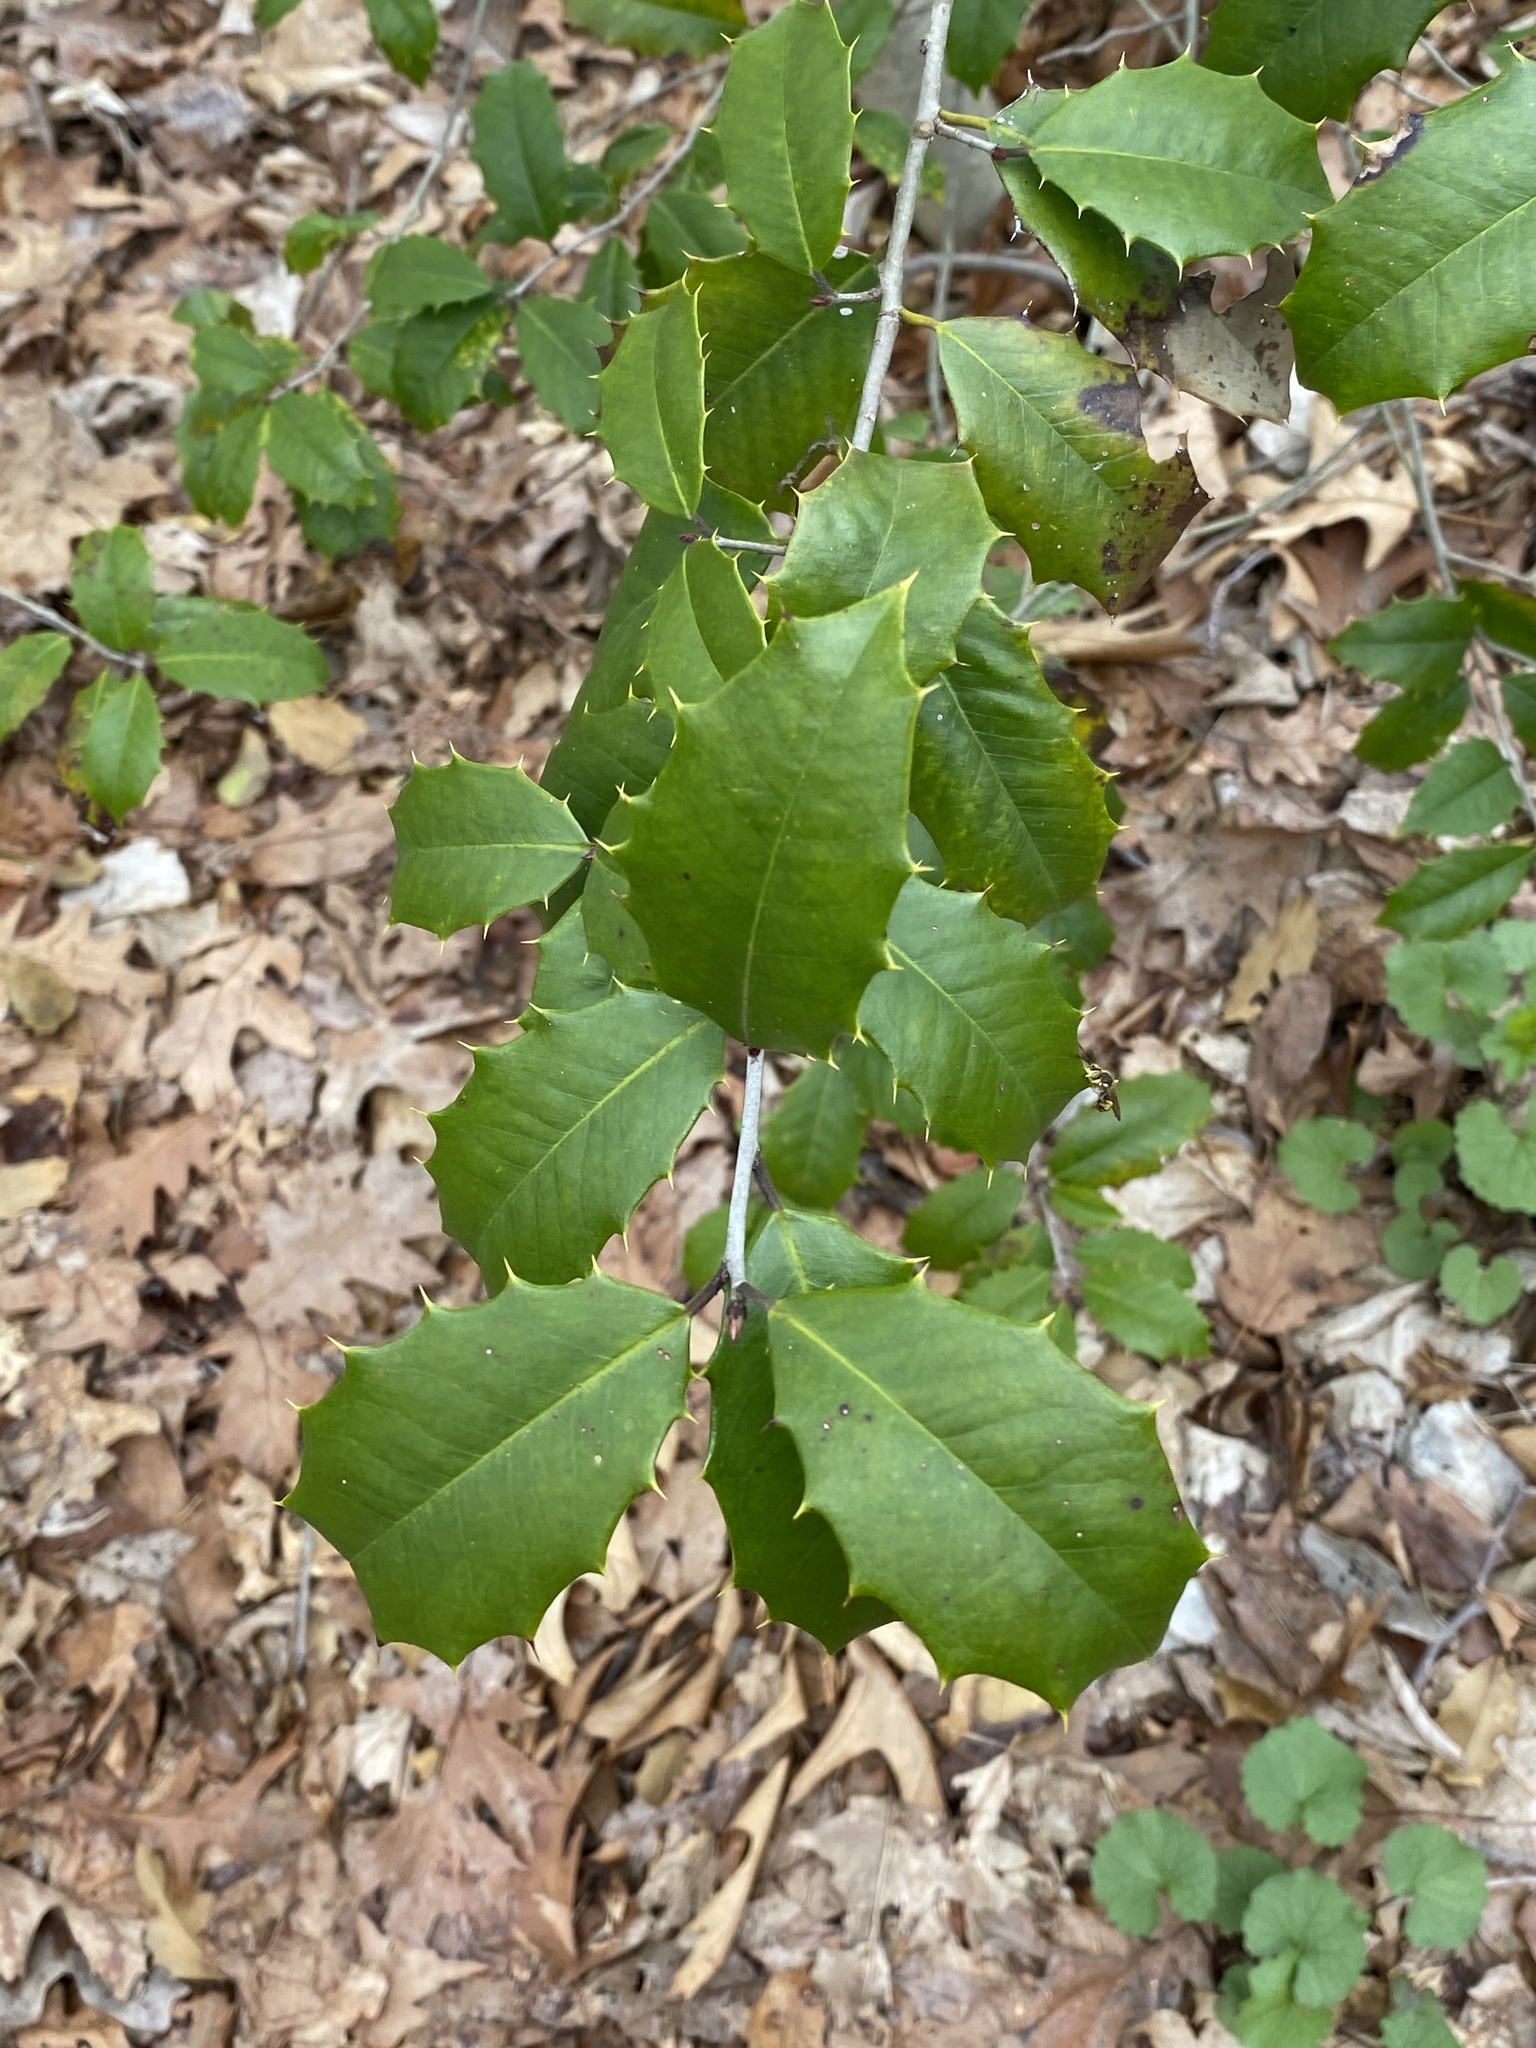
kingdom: Plantae
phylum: Tracheophyta
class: Magnoliopsida
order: Aquifoliales
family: Aquifoliaceae
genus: Ilex
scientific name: Ilex opaca
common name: American holly
